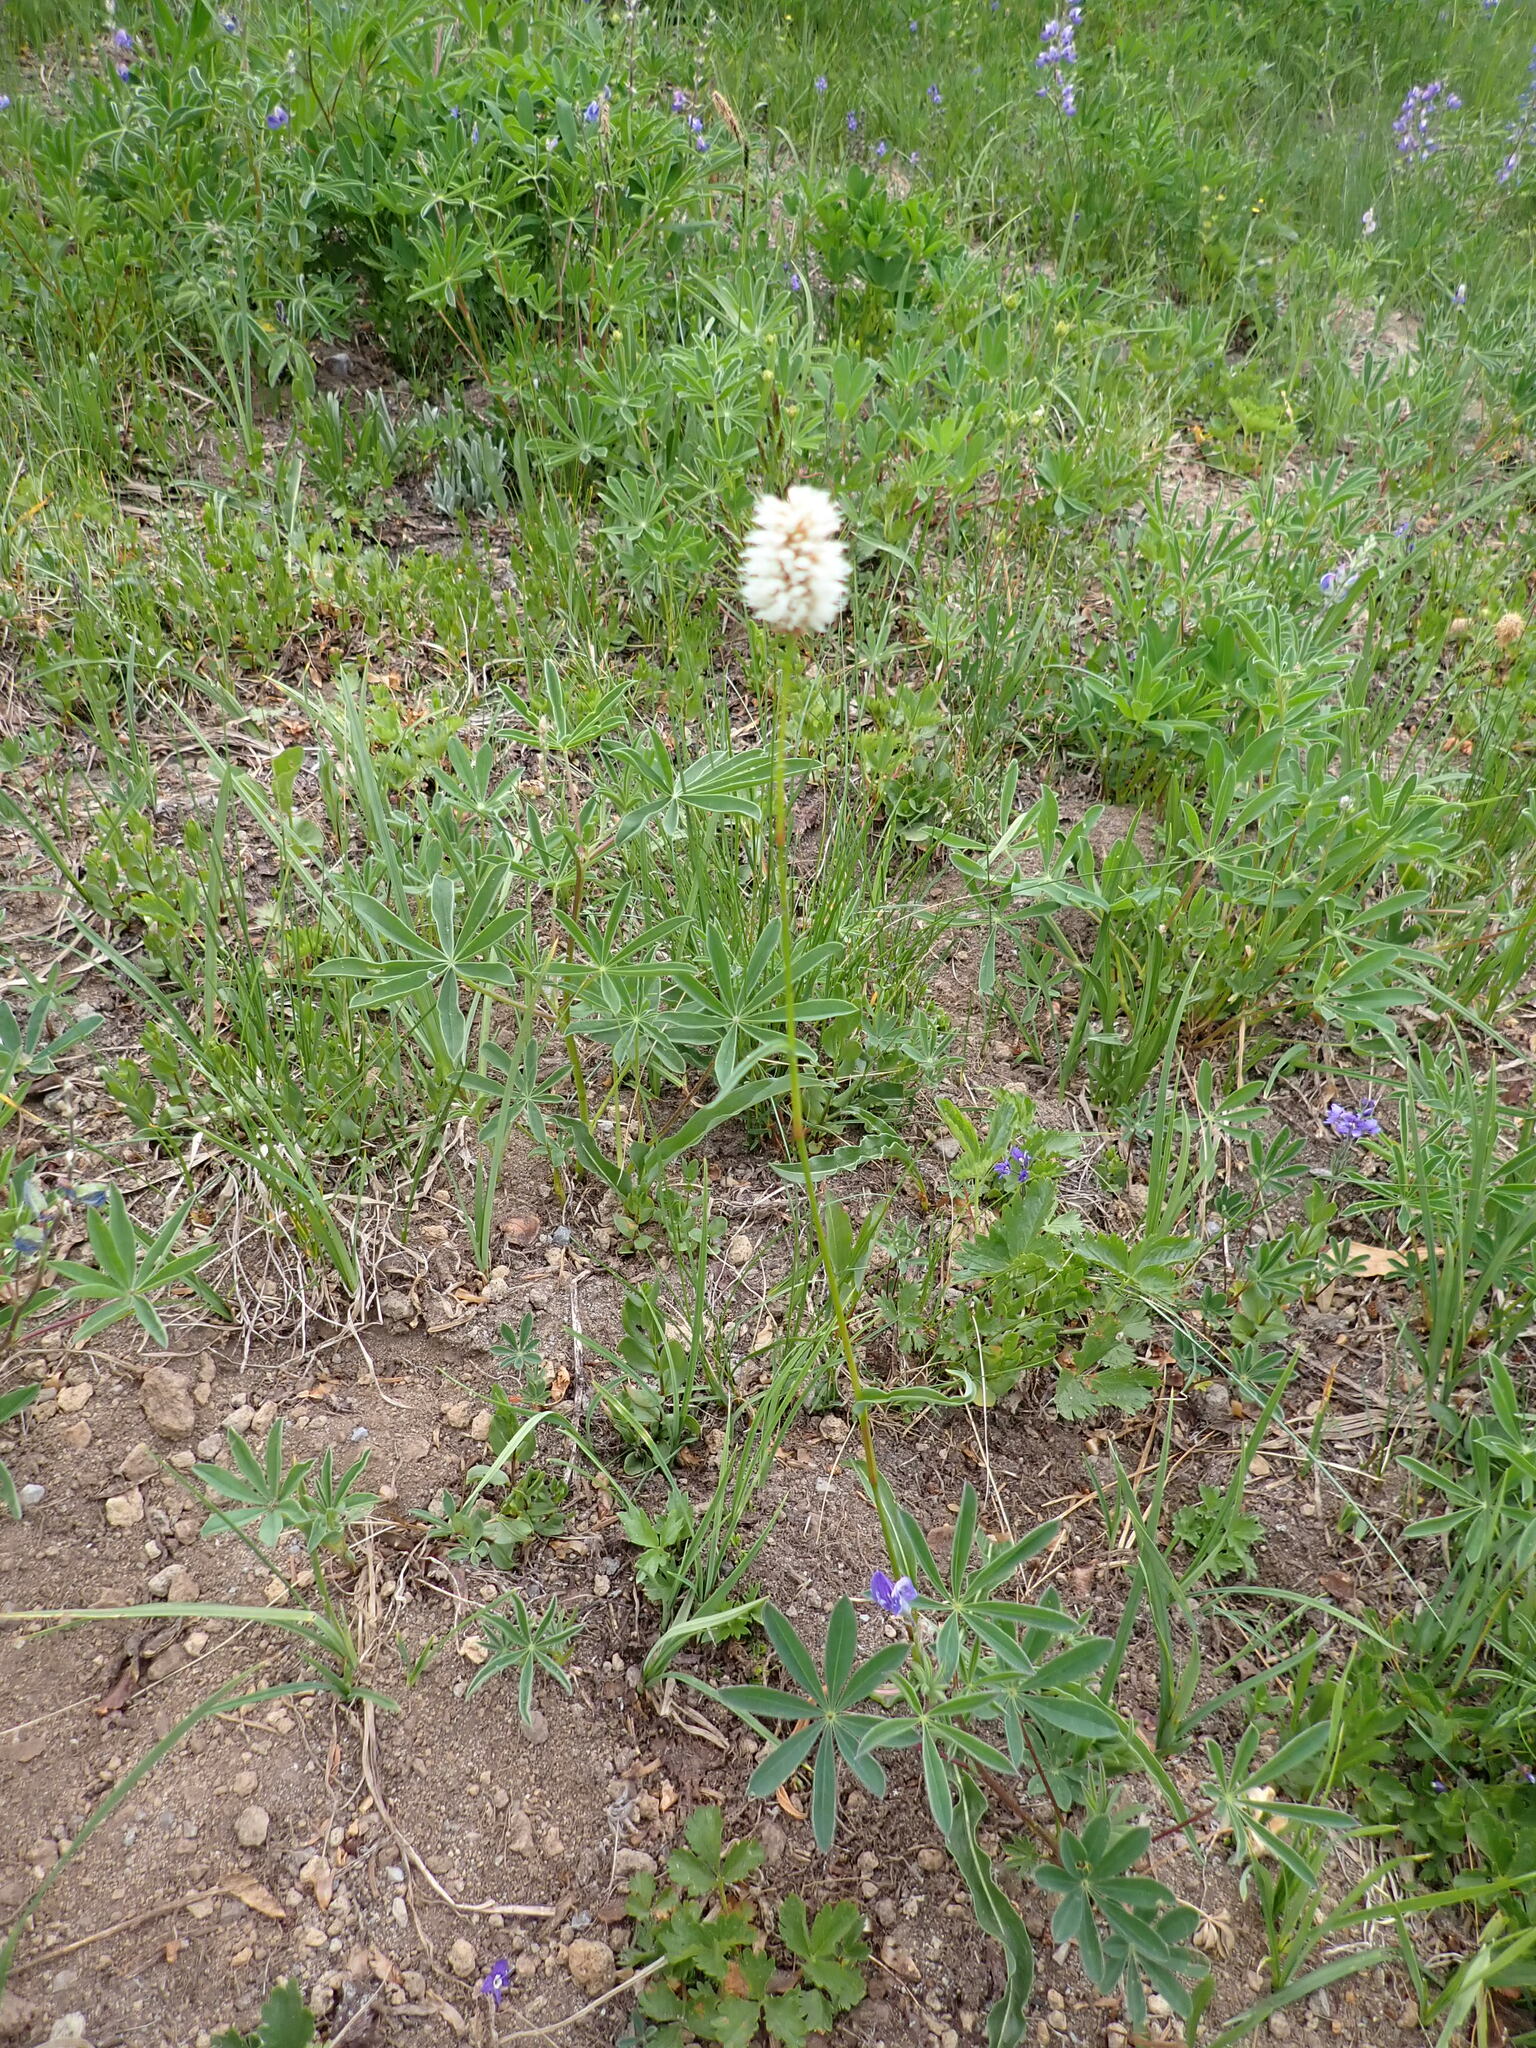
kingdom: Plantae
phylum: Tracheophyta
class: Magnoliopsida
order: Caryophyllales
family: Polygonaceae
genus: Bistorta
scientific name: Bistorta bistortoides
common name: American bistort
